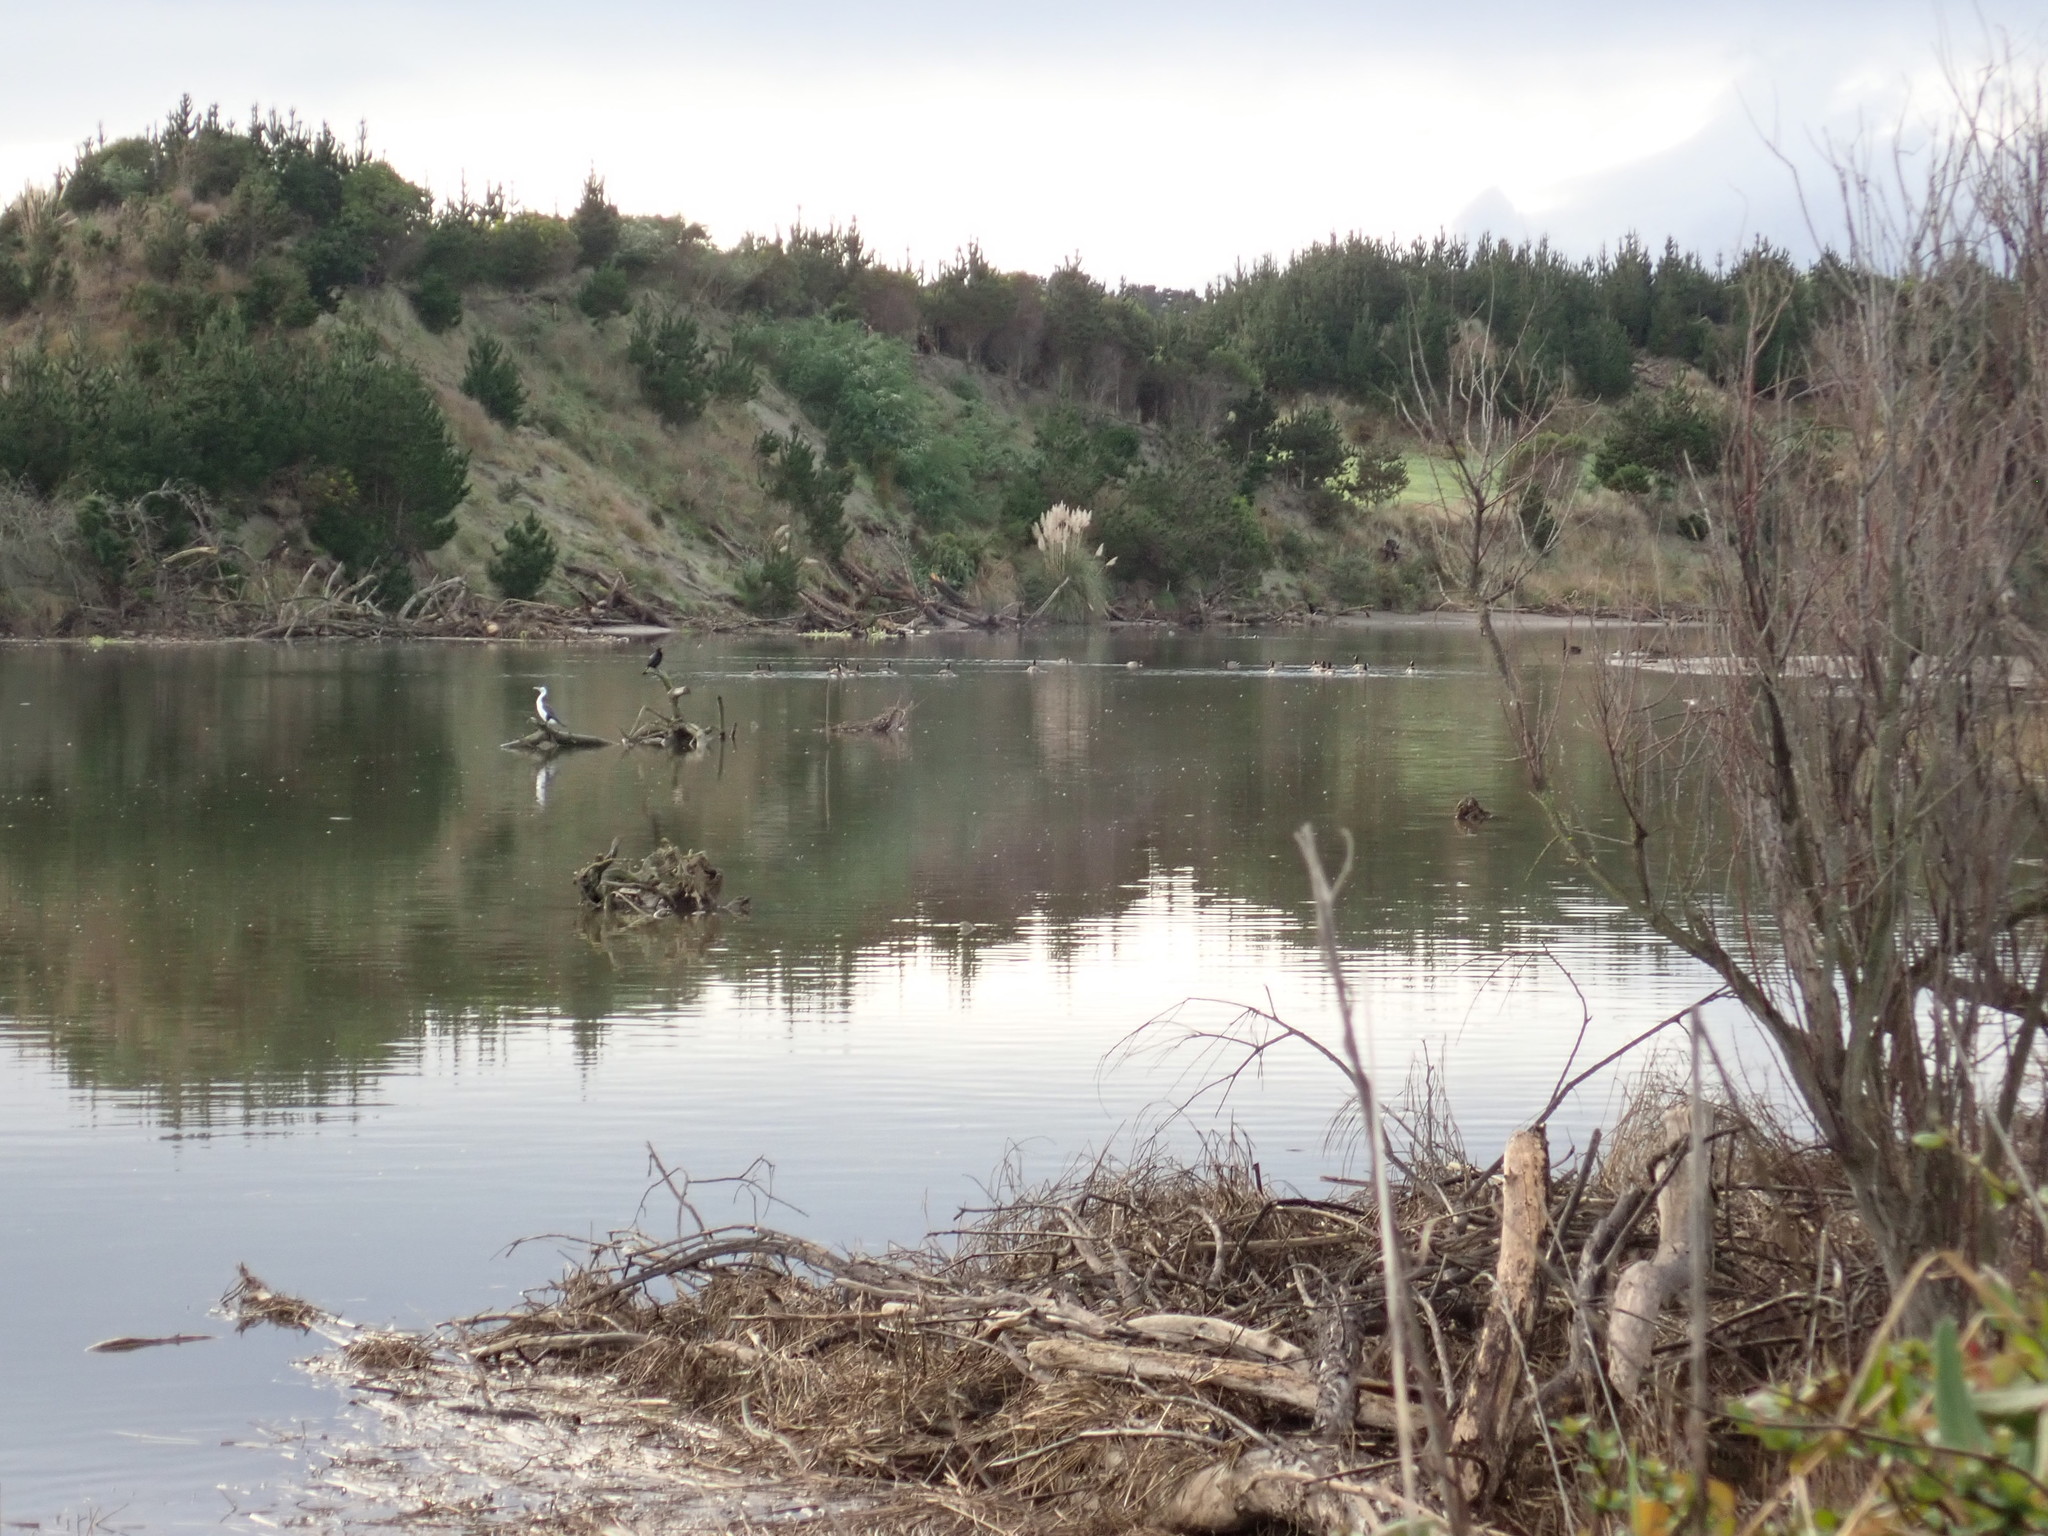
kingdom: Animalia
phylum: Chordata
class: Aves
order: Suliformes
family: Phalacrocoracidae
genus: Phalacrocorax
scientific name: Phalacrocorax varius
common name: Pied cormorant
